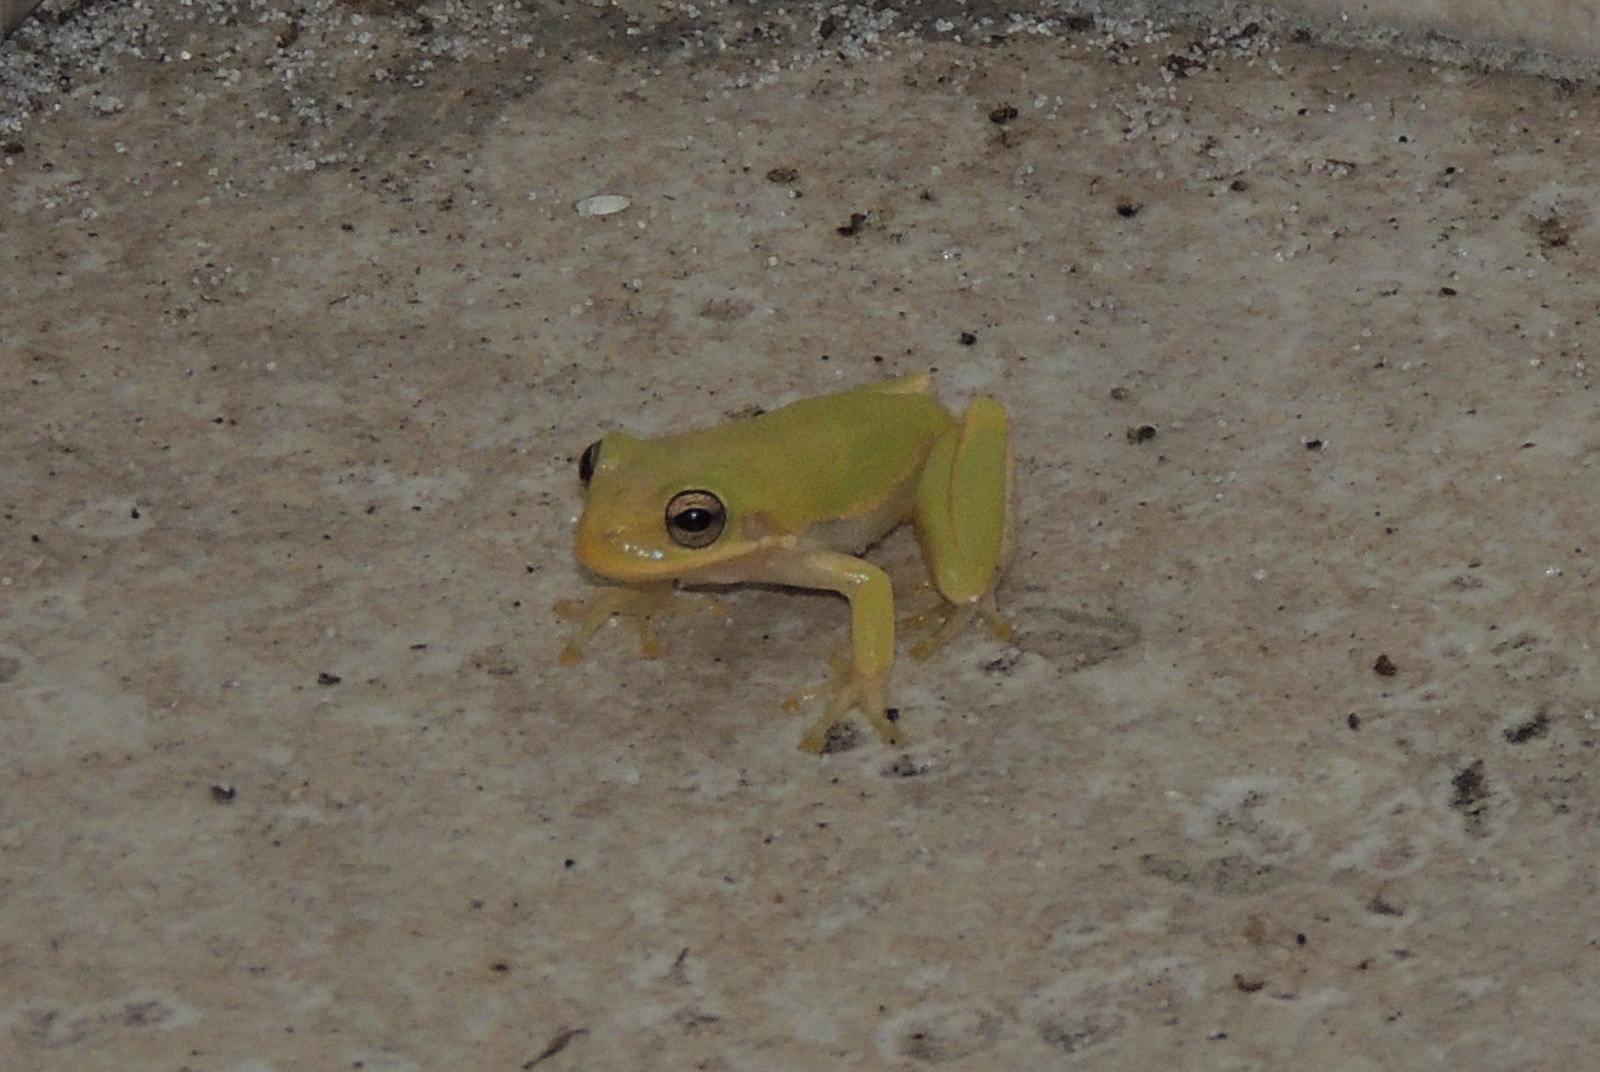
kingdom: Animalia
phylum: Chordata
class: Amphibia
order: Anura
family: Hylidae
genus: Dryophytes
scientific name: Dryophytes squirellus
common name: Squirrel treefrog
